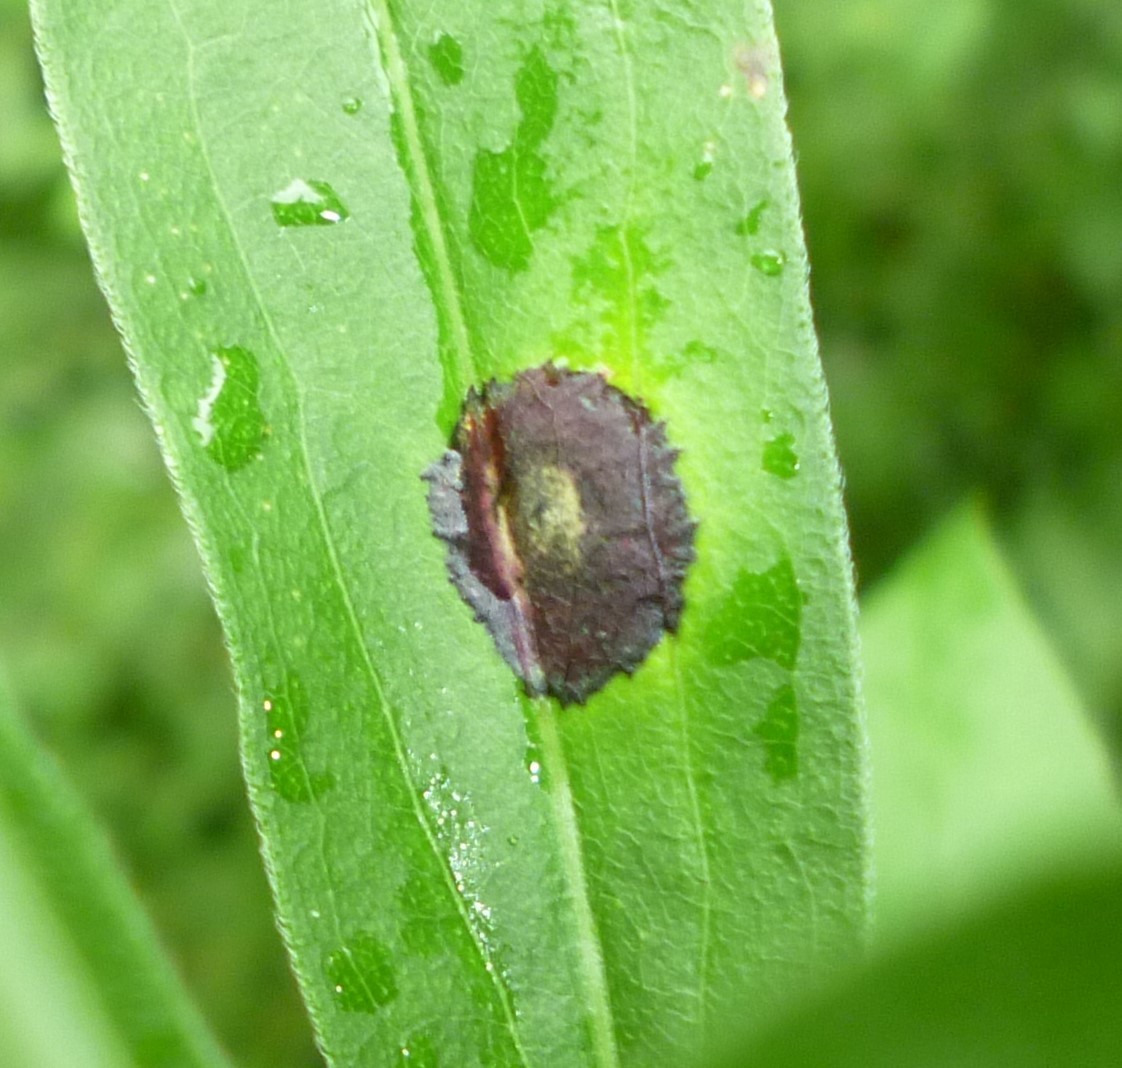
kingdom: Animalia
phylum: Arthropoda
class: Insecta
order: Diptera
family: Cecidomyiidae
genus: Asteromyia
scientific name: Asteromyia carbonifera
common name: Carbonifera goldenrod gall midge
